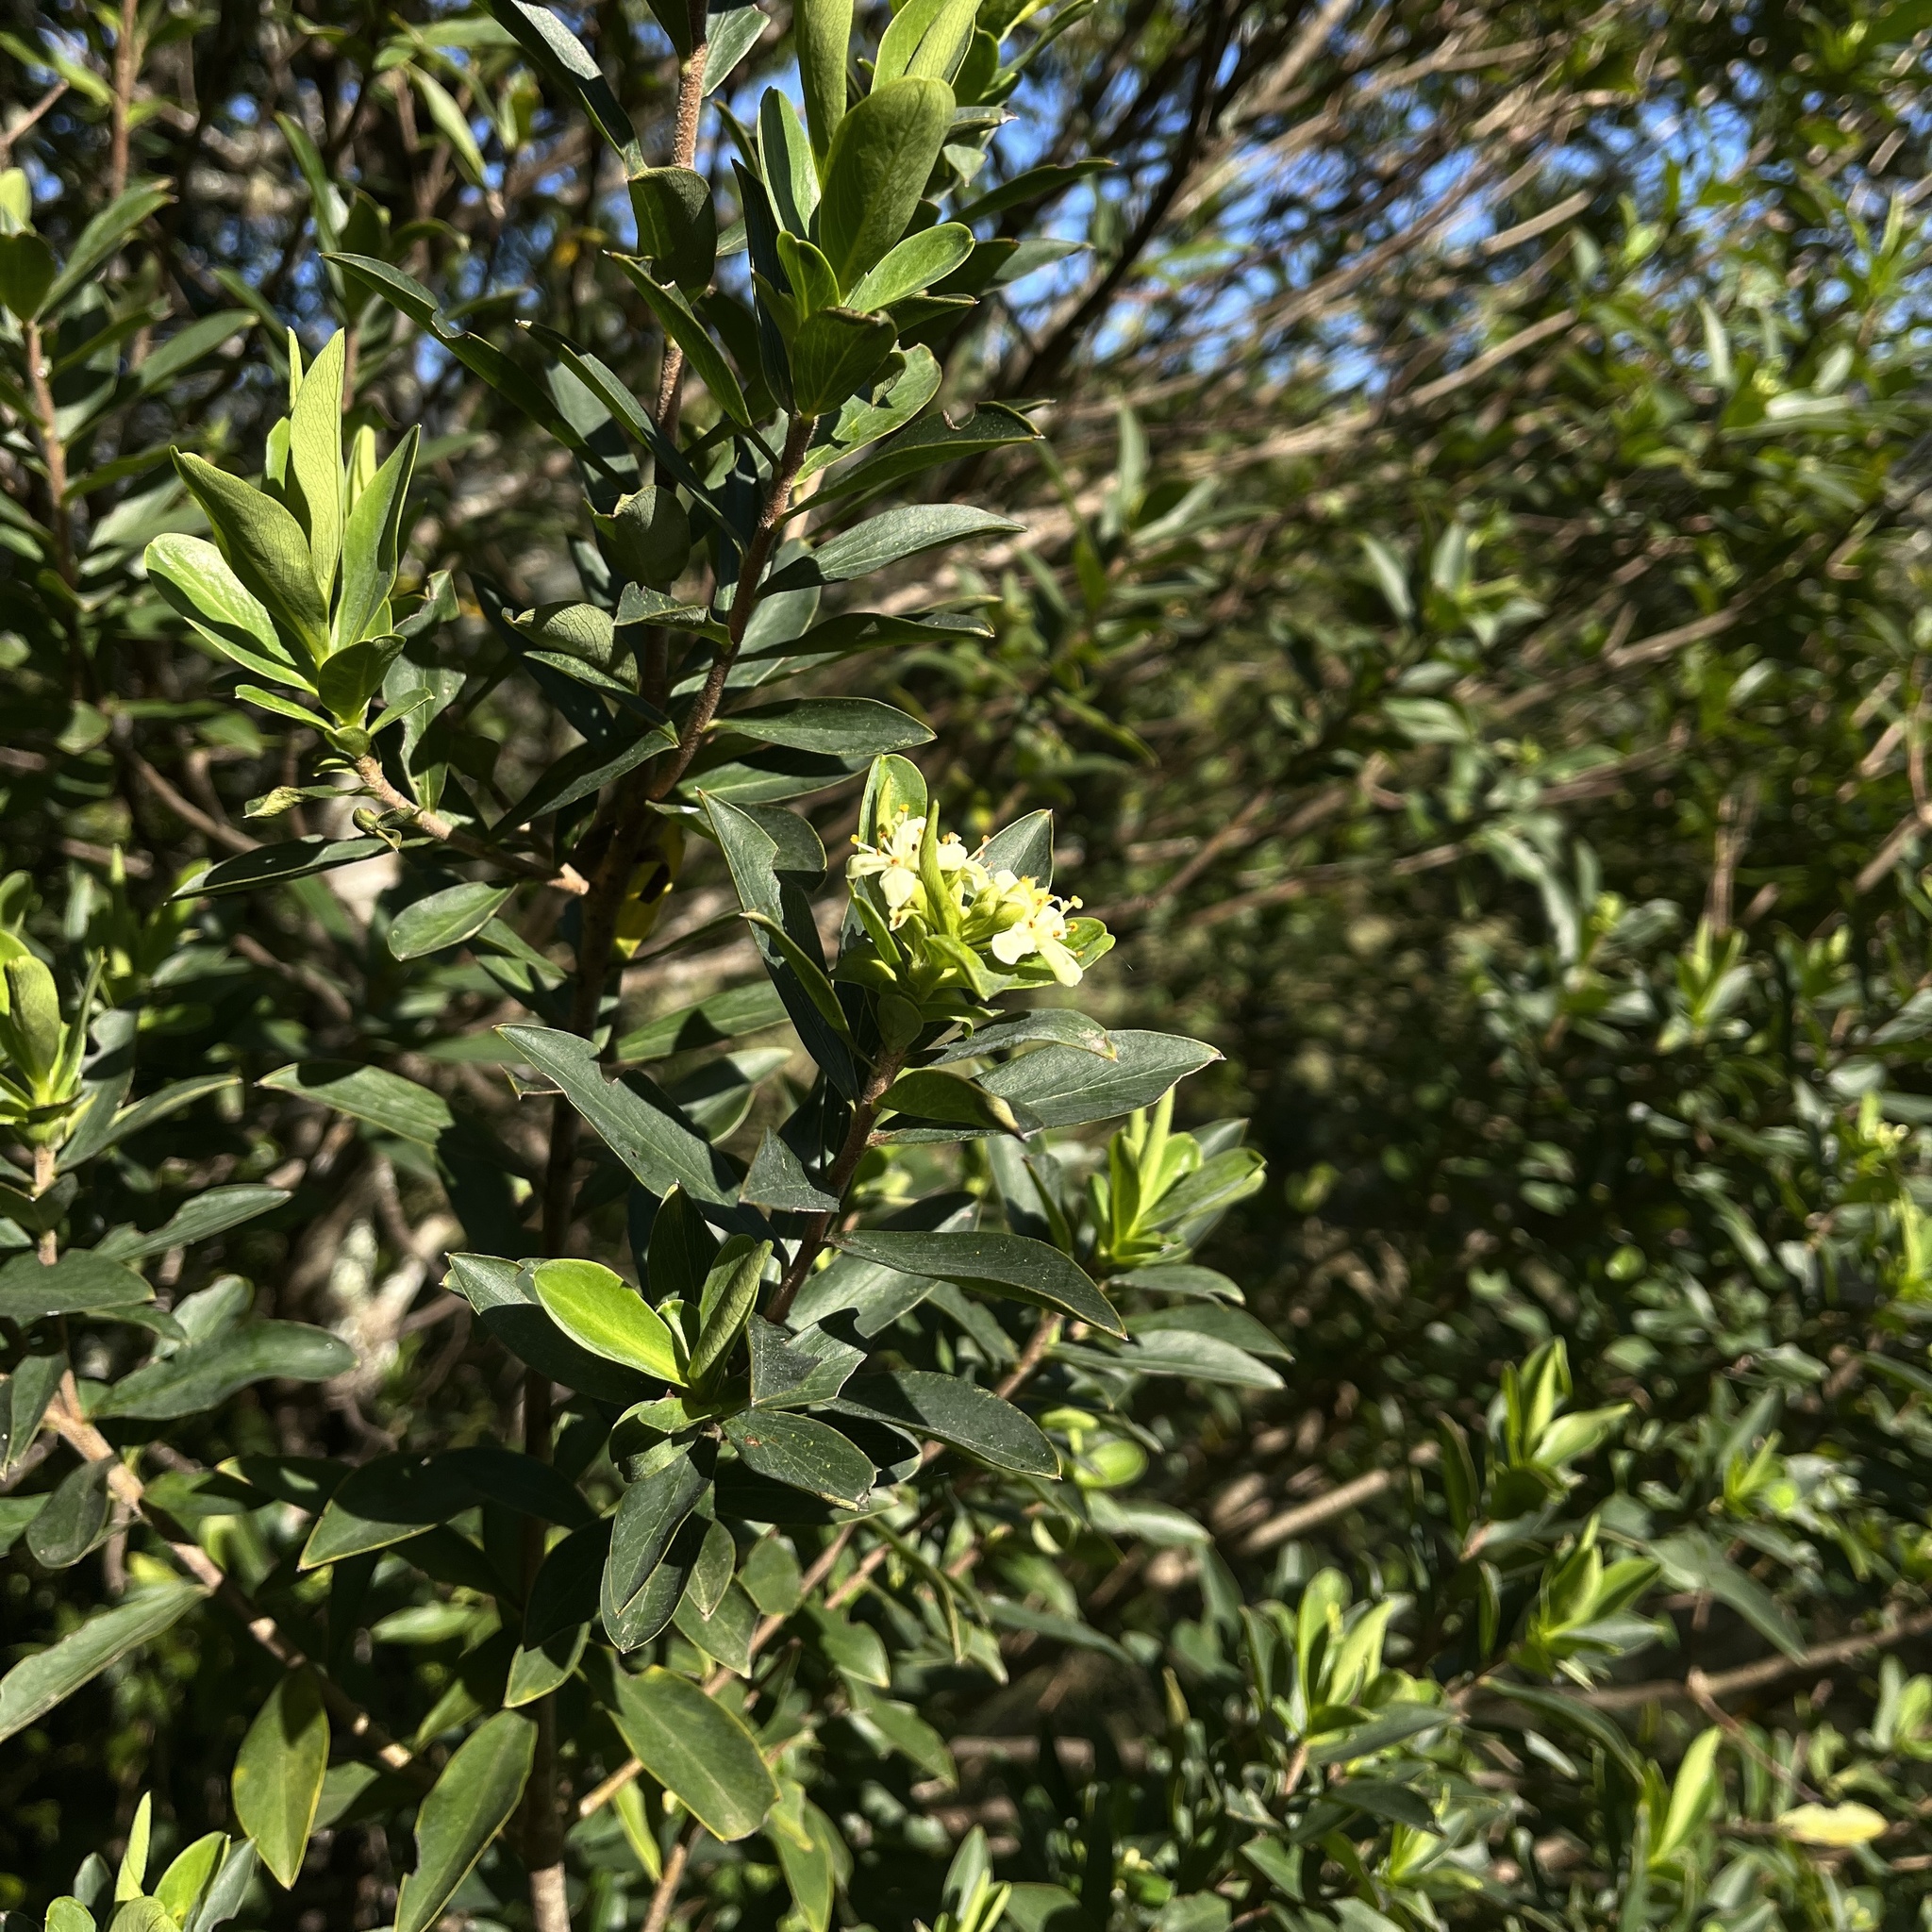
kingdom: Plantae
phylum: Tracheophyta
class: Magnoliopsida
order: Malvales
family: Thymelaeaceae
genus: Ovidia
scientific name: Ovidia pillo-pillo
